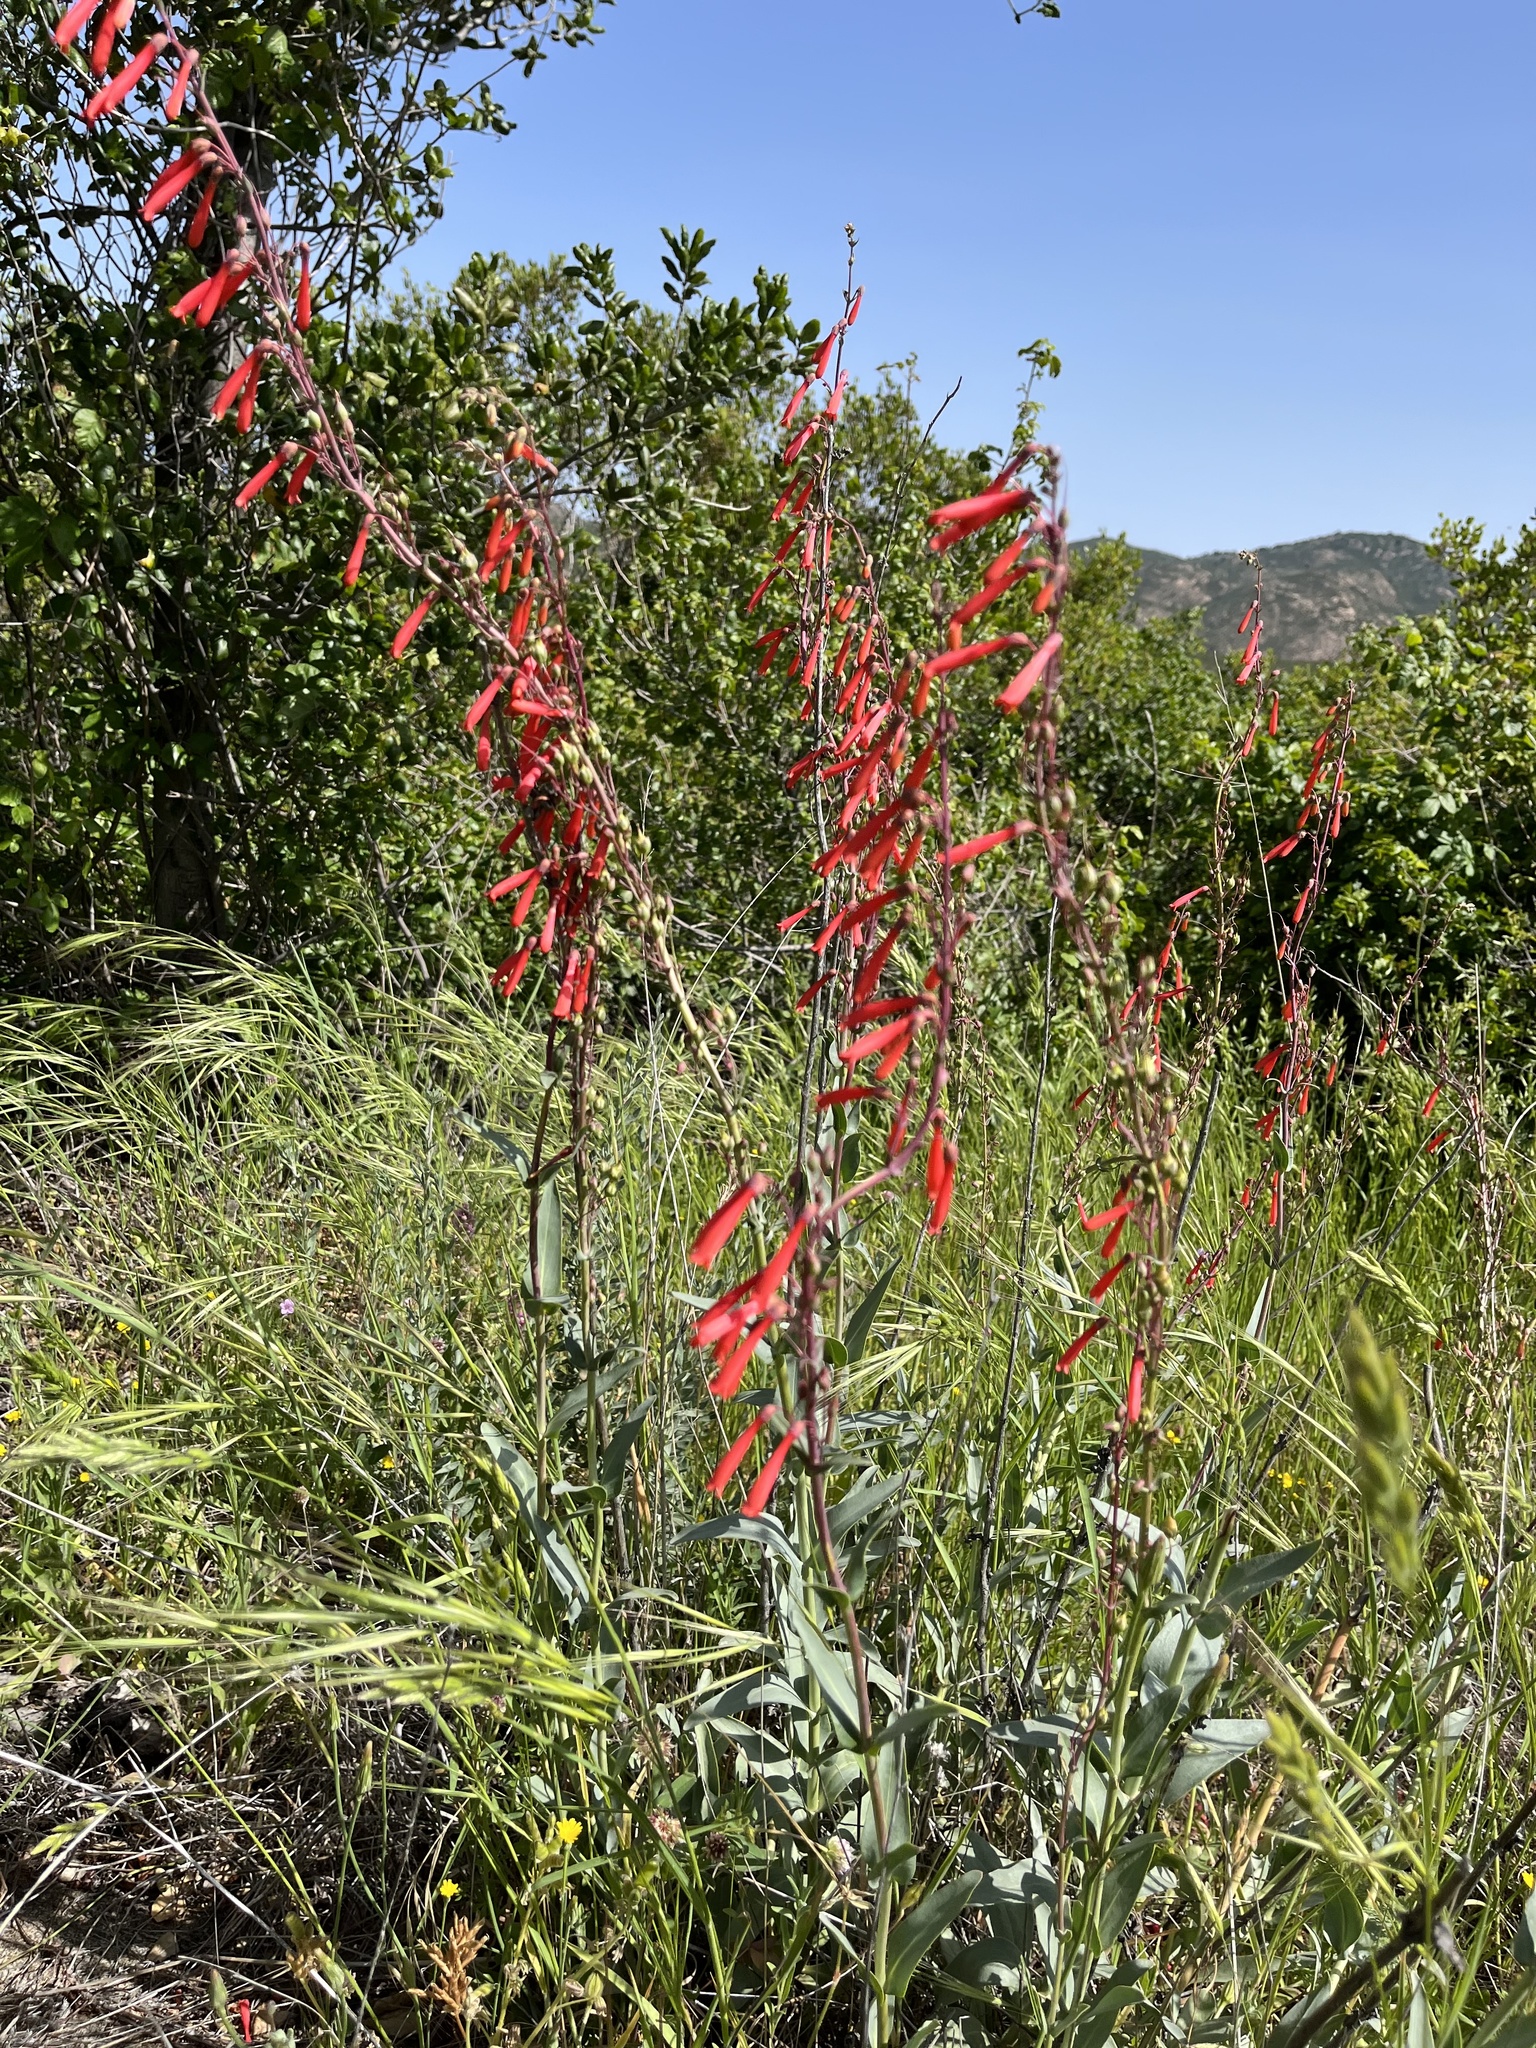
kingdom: Plantae
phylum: Tracheophyta
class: Magnoliopsida
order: Lamiales
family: Plantaginaceae
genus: Penstemon
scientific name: Penstemon centranthifolius
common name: Scarlet bugler
